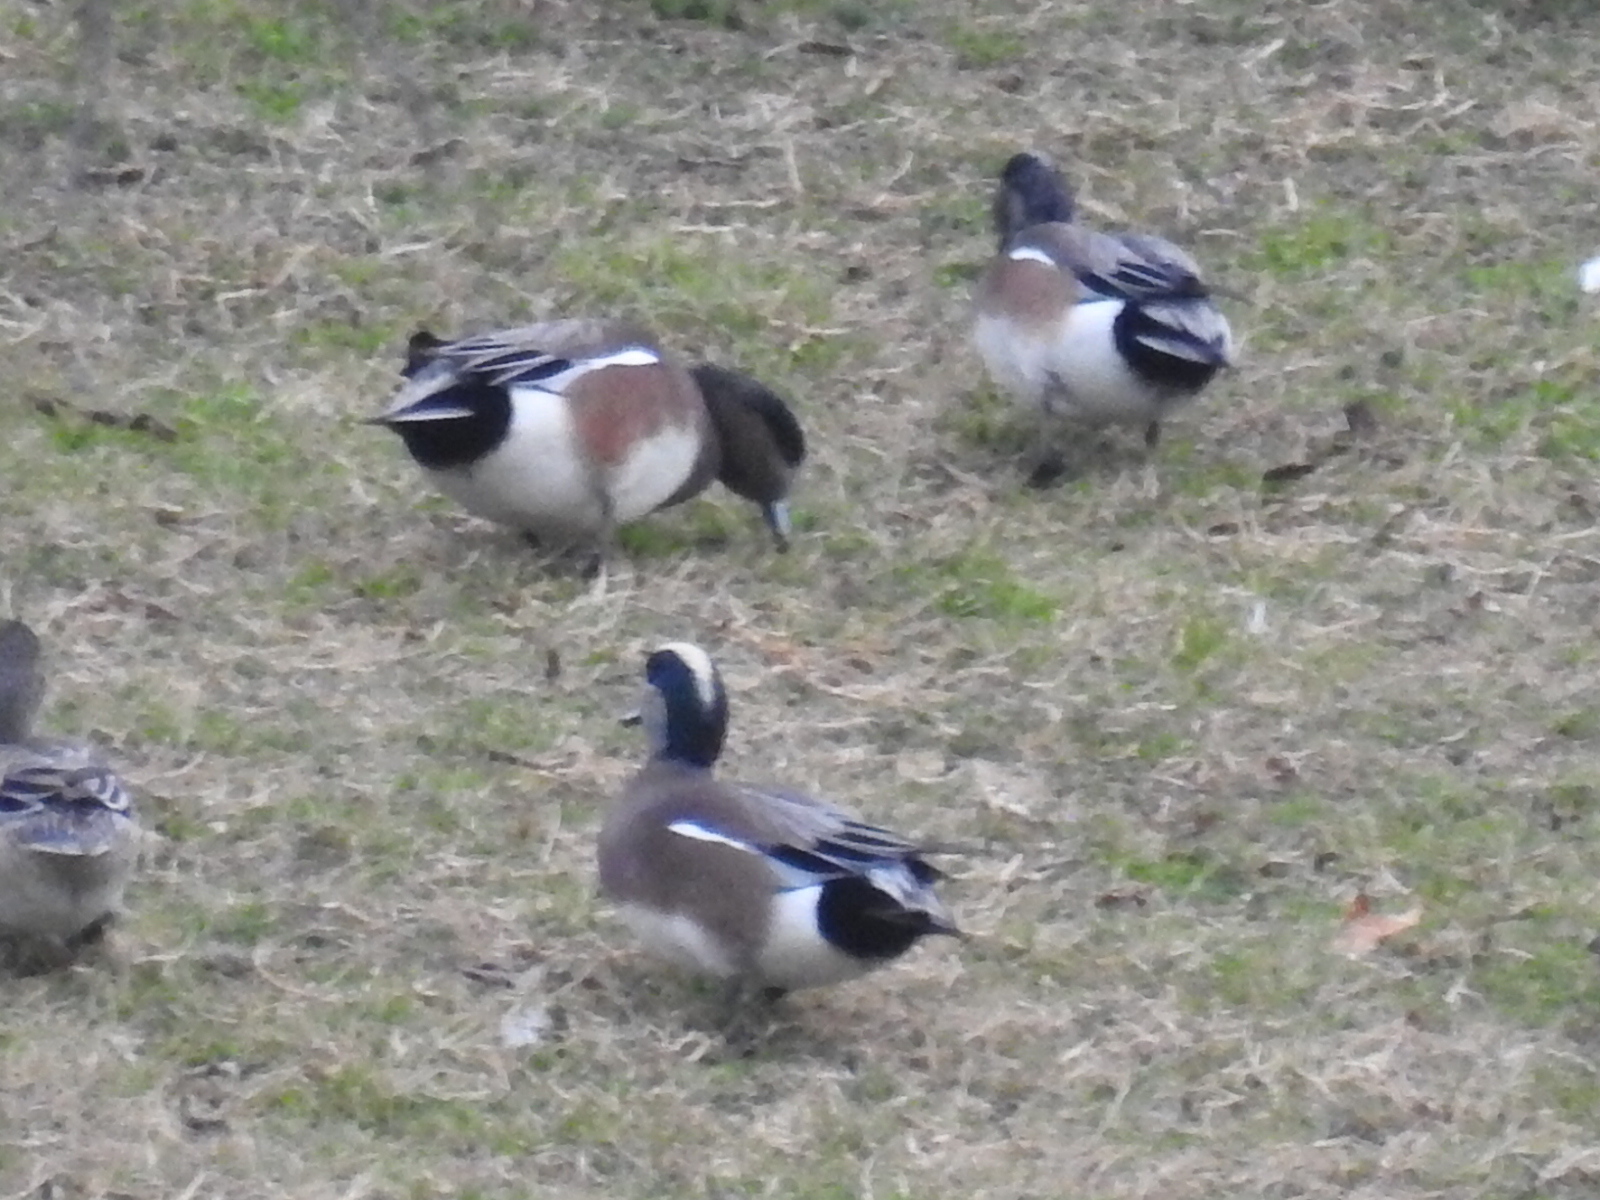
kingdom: Animalia
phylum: Chordata
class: Aves
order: Anseriformes
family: Anatidae
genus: Mareca
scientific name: Mareca americana
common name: American wigeon
